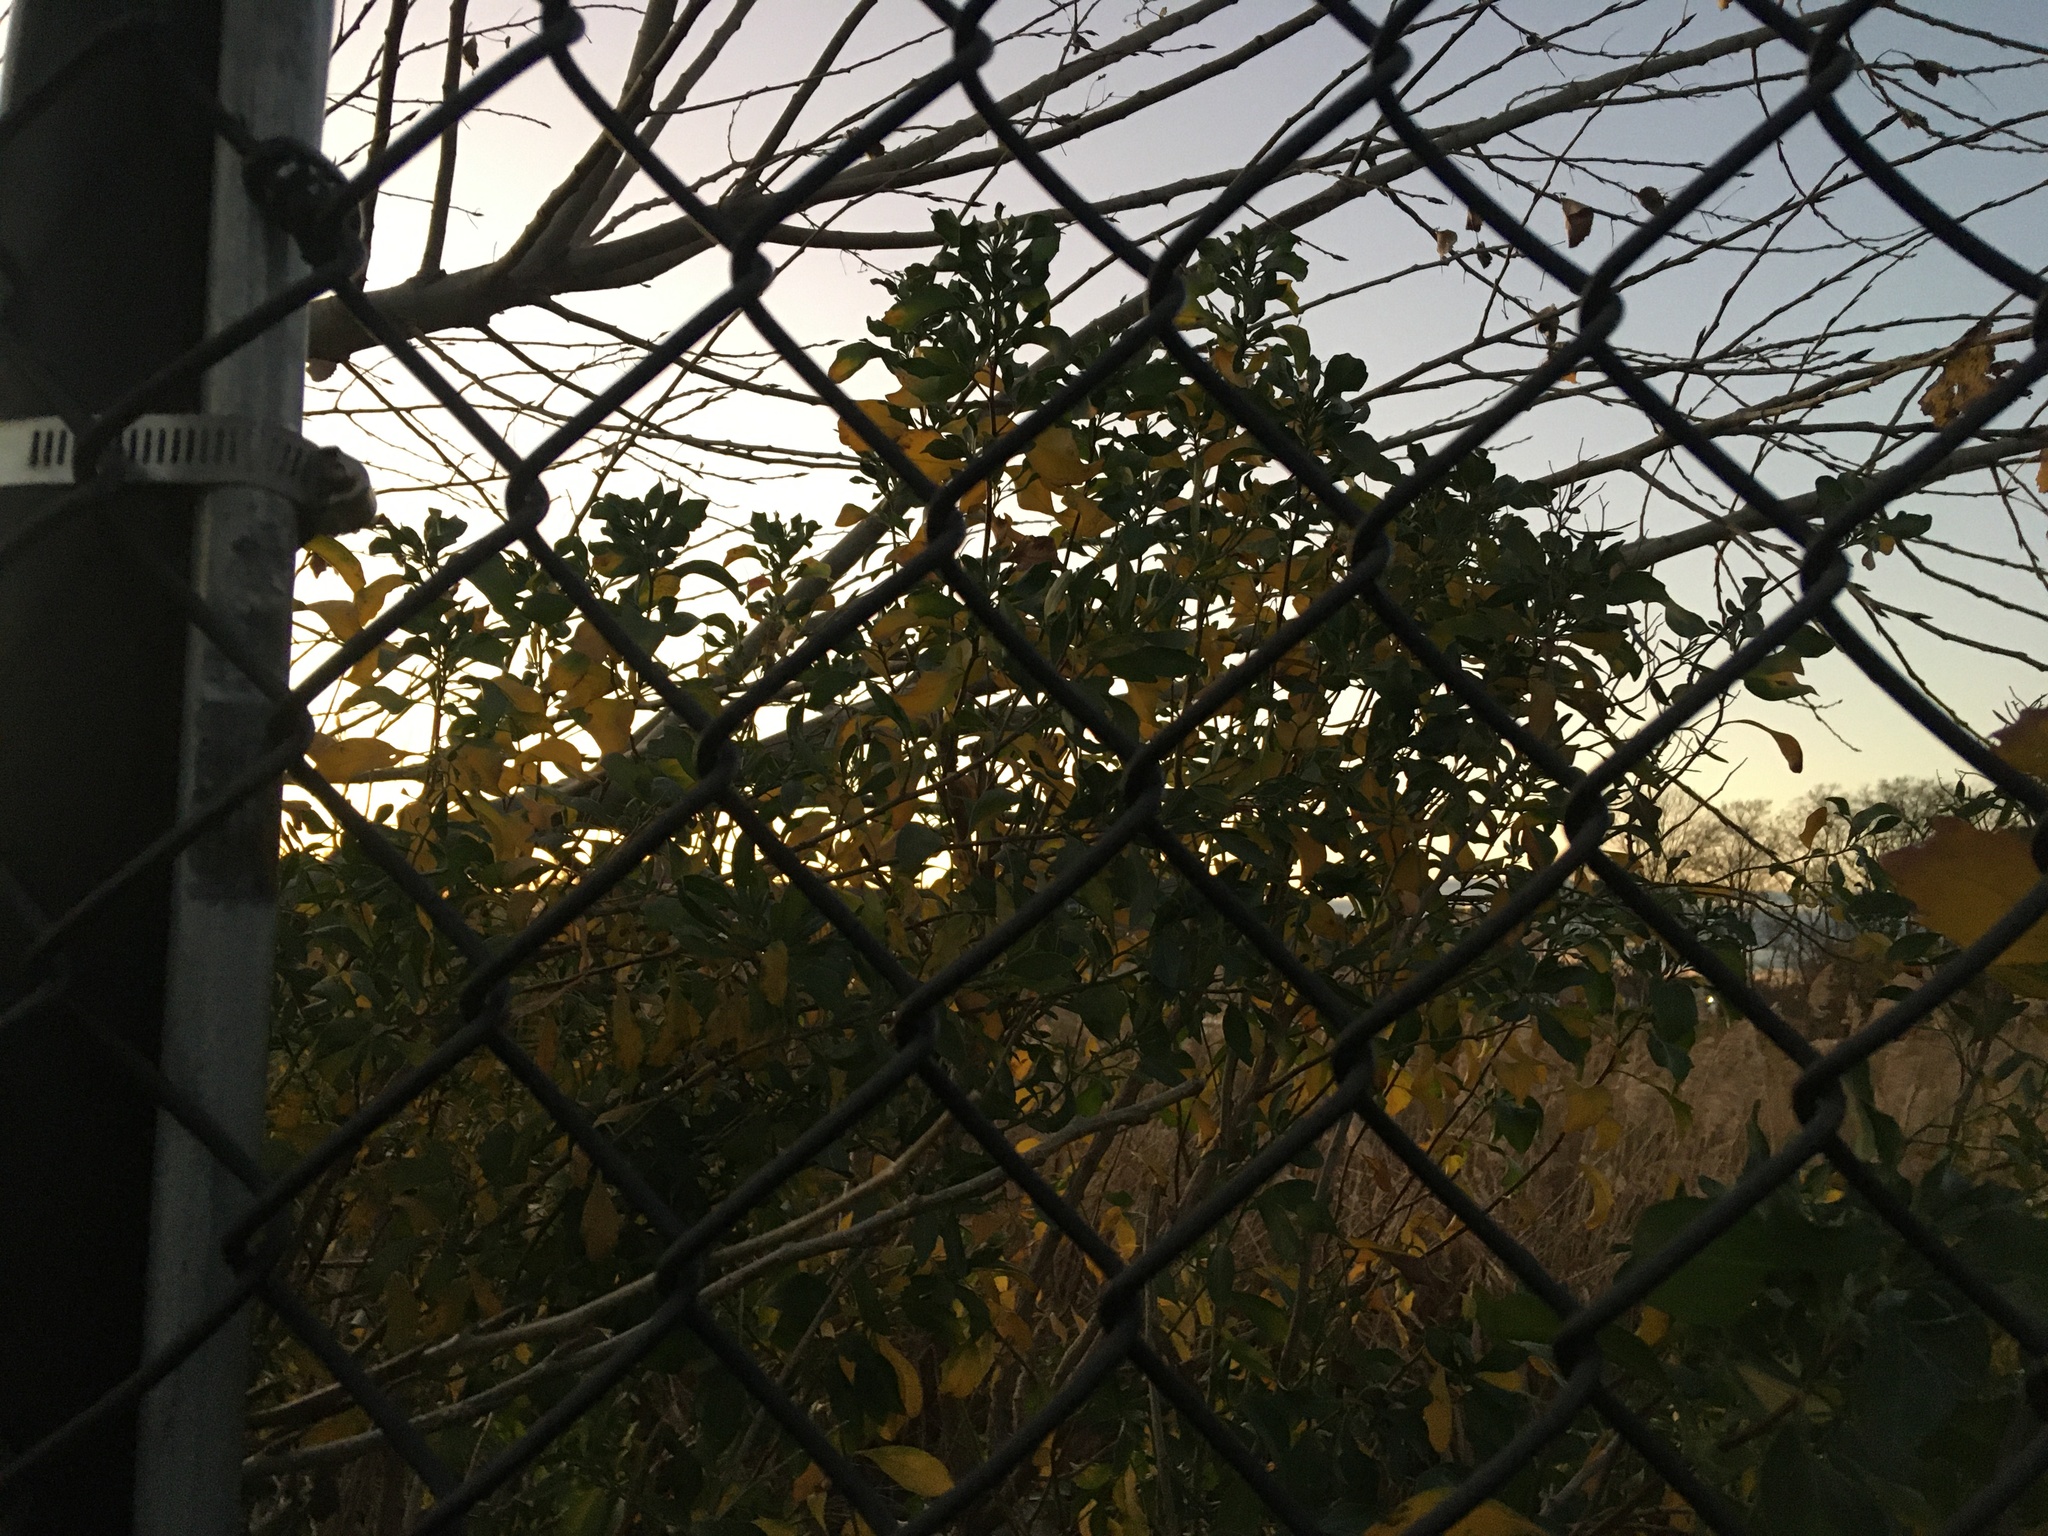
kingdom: Plantae
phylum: Tracheophyta
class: Magnoliopsida
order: Asterales
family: Asteraceae
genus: Baccharis
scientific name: Baccharis halimifolia
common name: Eastern baccharis
